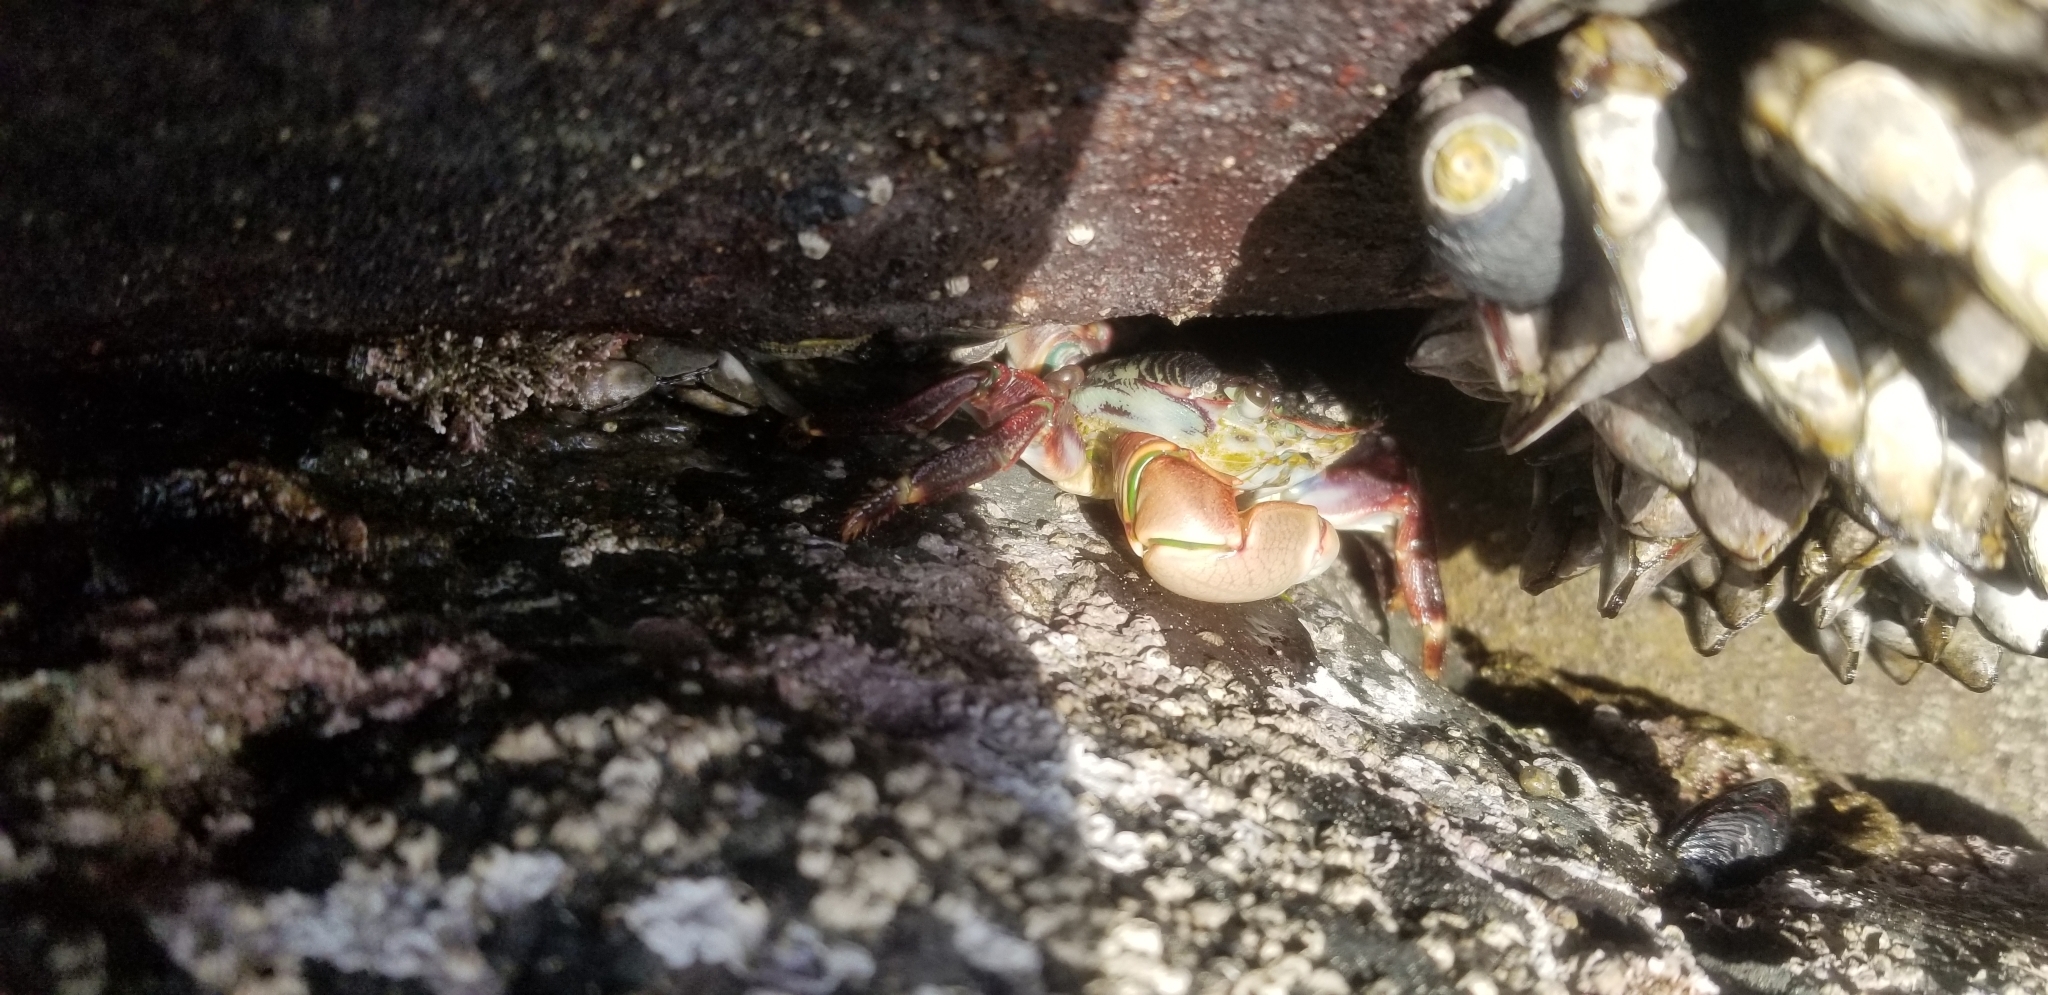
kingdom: Animalia
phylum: Arthropoda
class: Malacostraca
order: Decapoda
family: Grapsidae
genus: Pachygrapsus
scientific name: Pachygrapsus crassipes
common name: Striped shore crab
